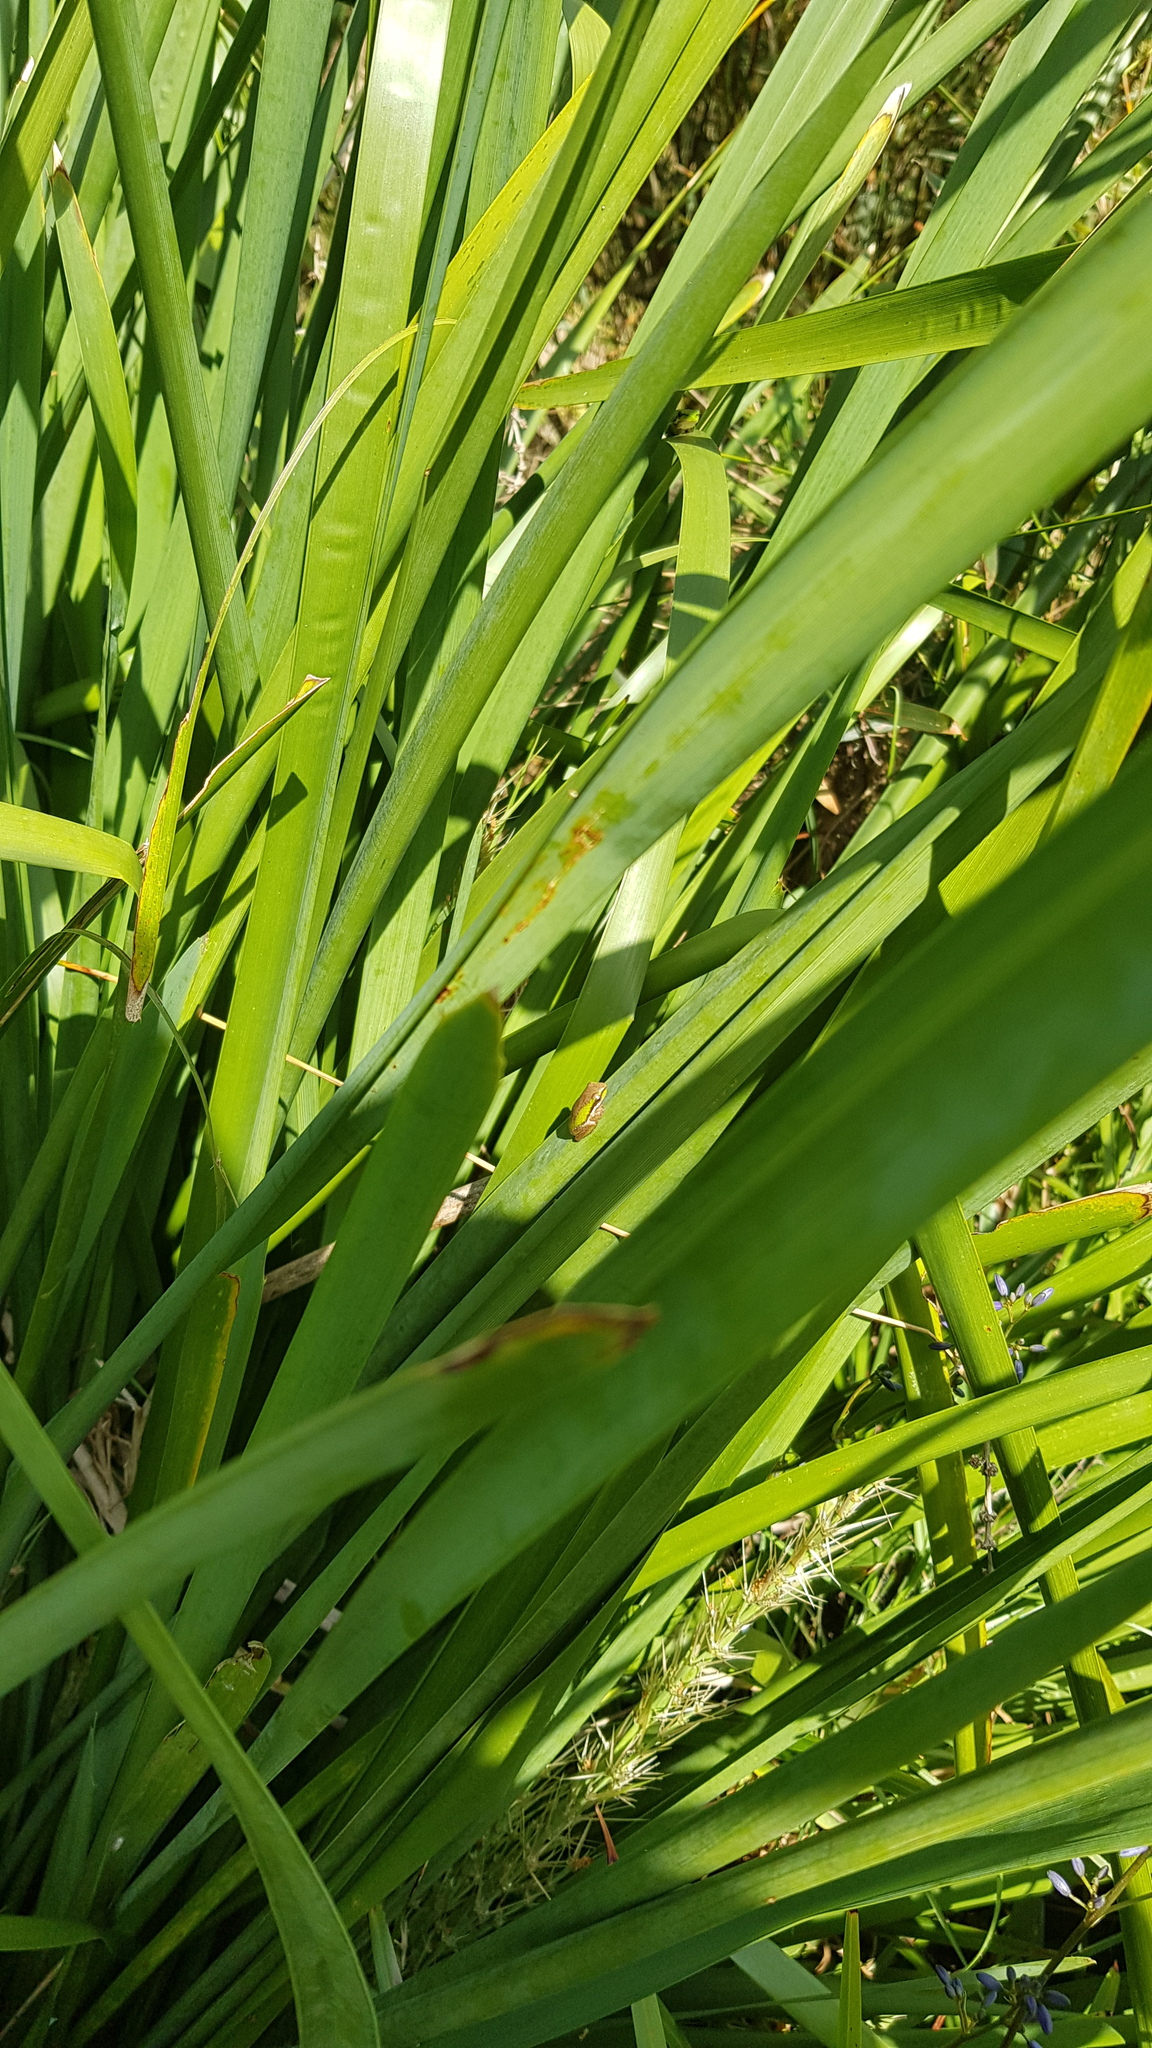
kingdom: Animalia
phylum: Chordata
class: Amphibia
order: Anura
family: Pelodryadidae
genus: Litoria
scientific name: Litoria fallax
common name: Eastern dwarf treefrog
